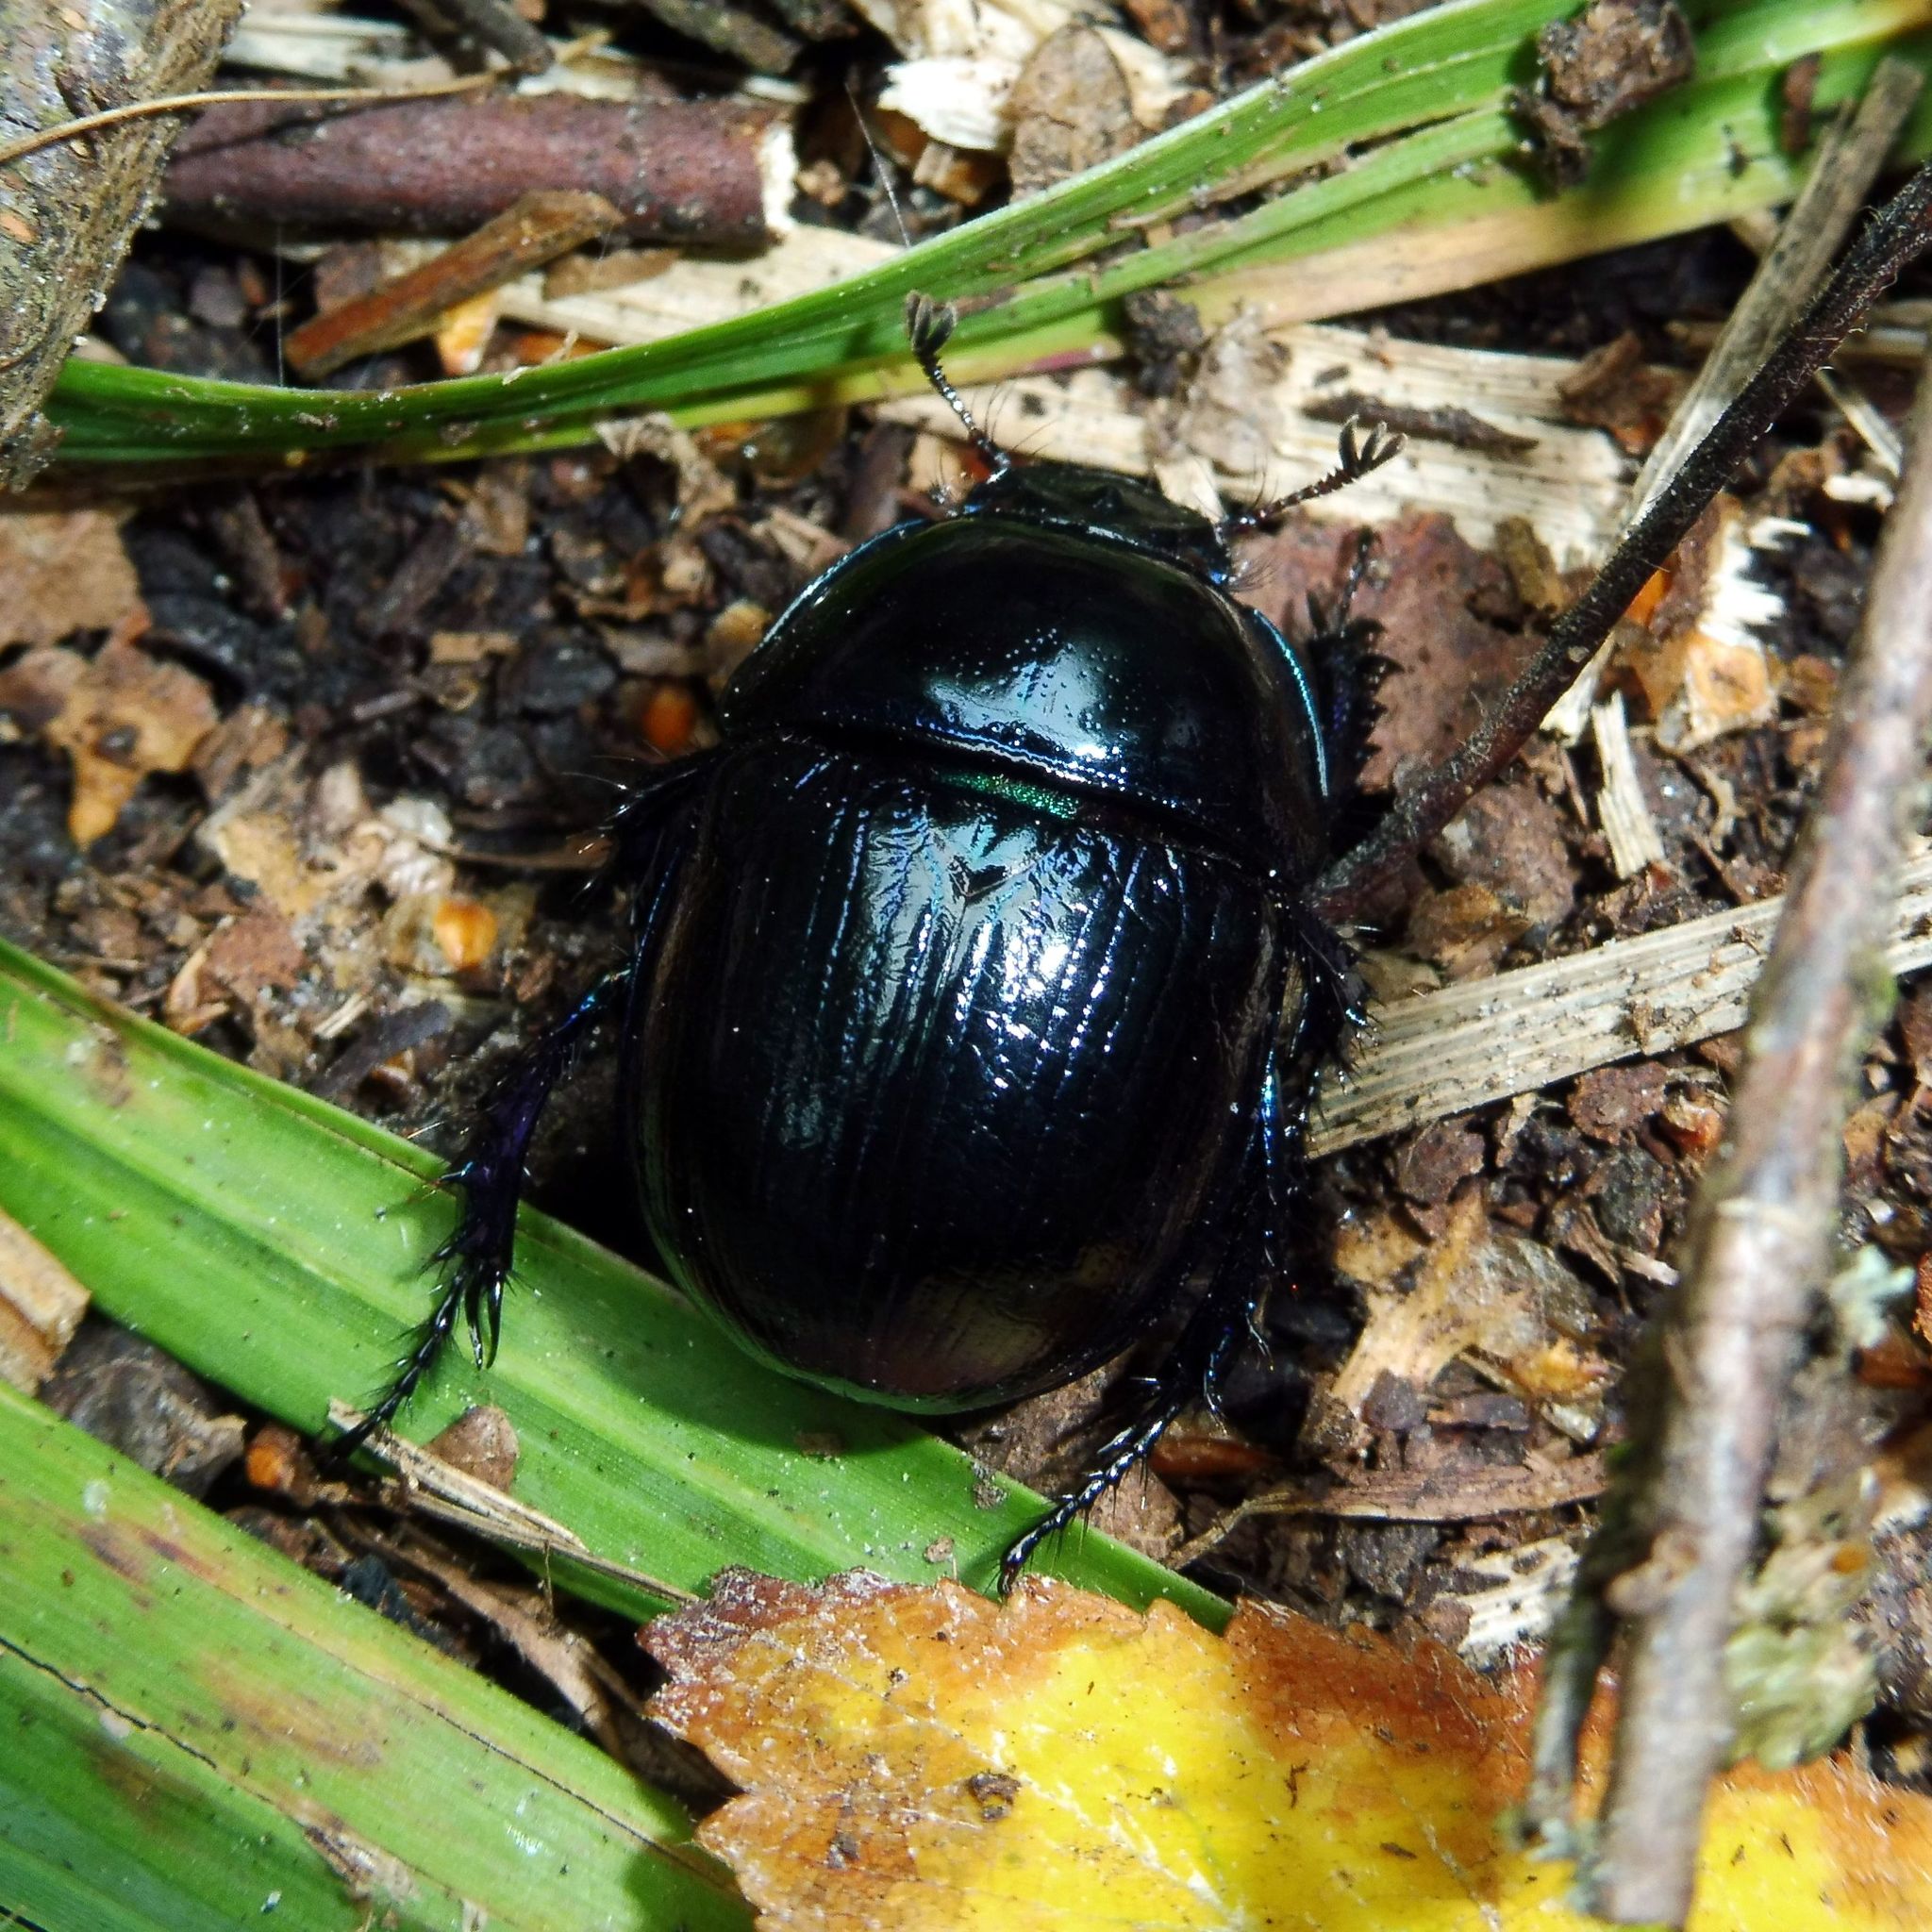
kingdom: Animalia
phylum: Arthropoda
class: Insecta
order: Coleoptera
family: Geotrupidae
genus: Anoplotrupes
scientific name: Anoplotrupes stercorosus
